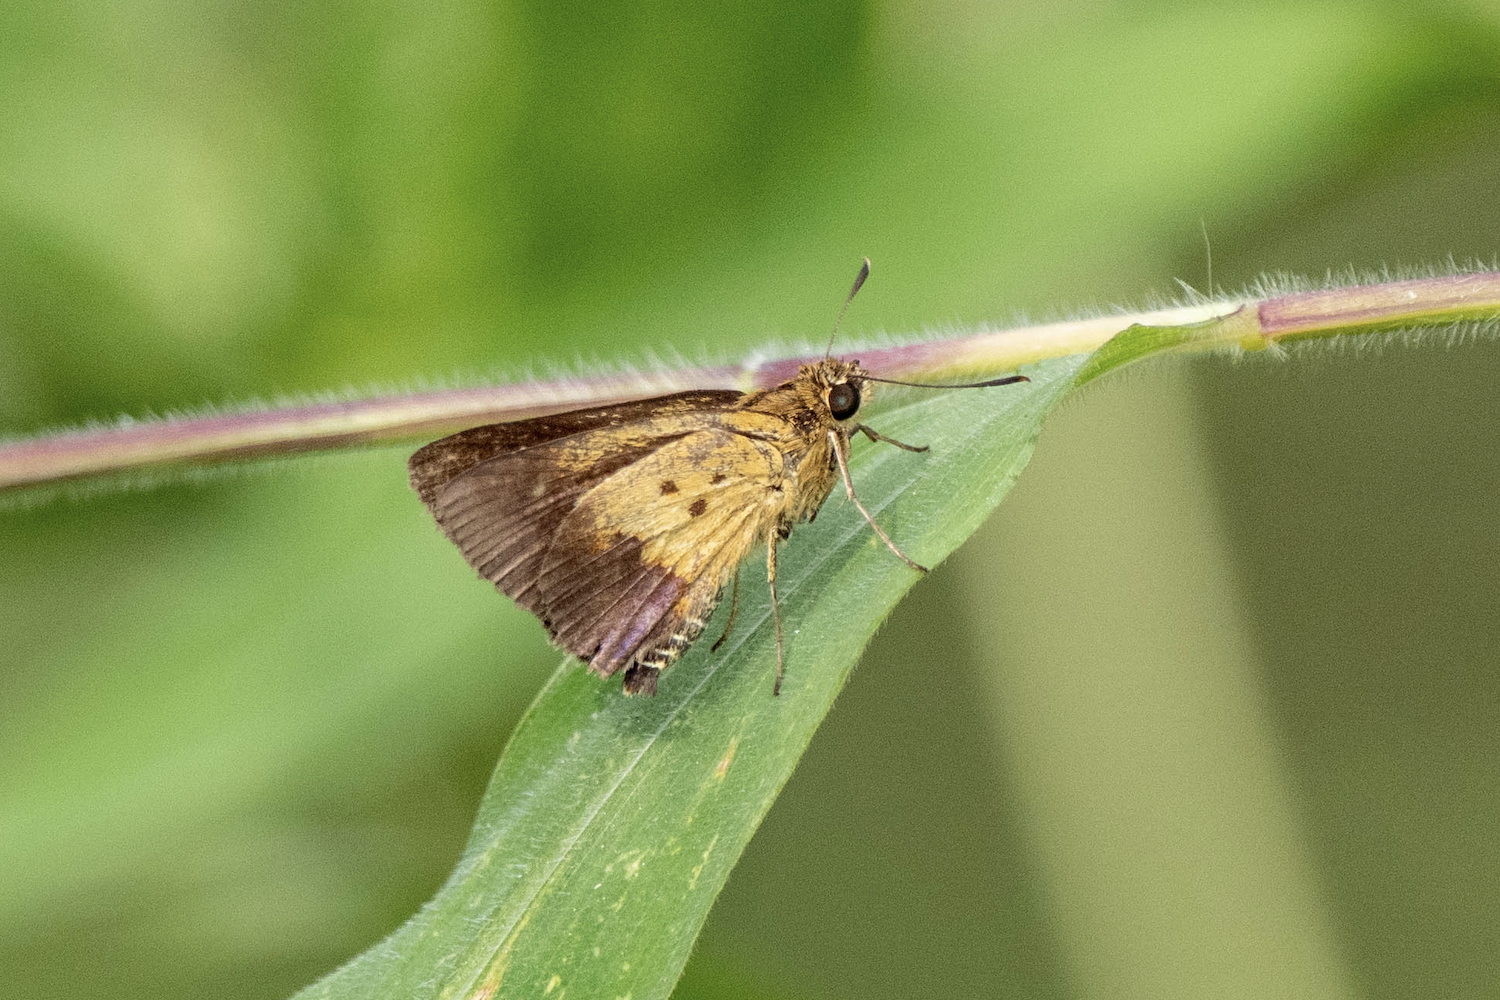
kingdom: Animalia
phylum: Arthropoda
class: Insecta
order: Lepidoptera
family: Hesperiidae
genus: Zographetus
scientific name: Zographetus satwa
